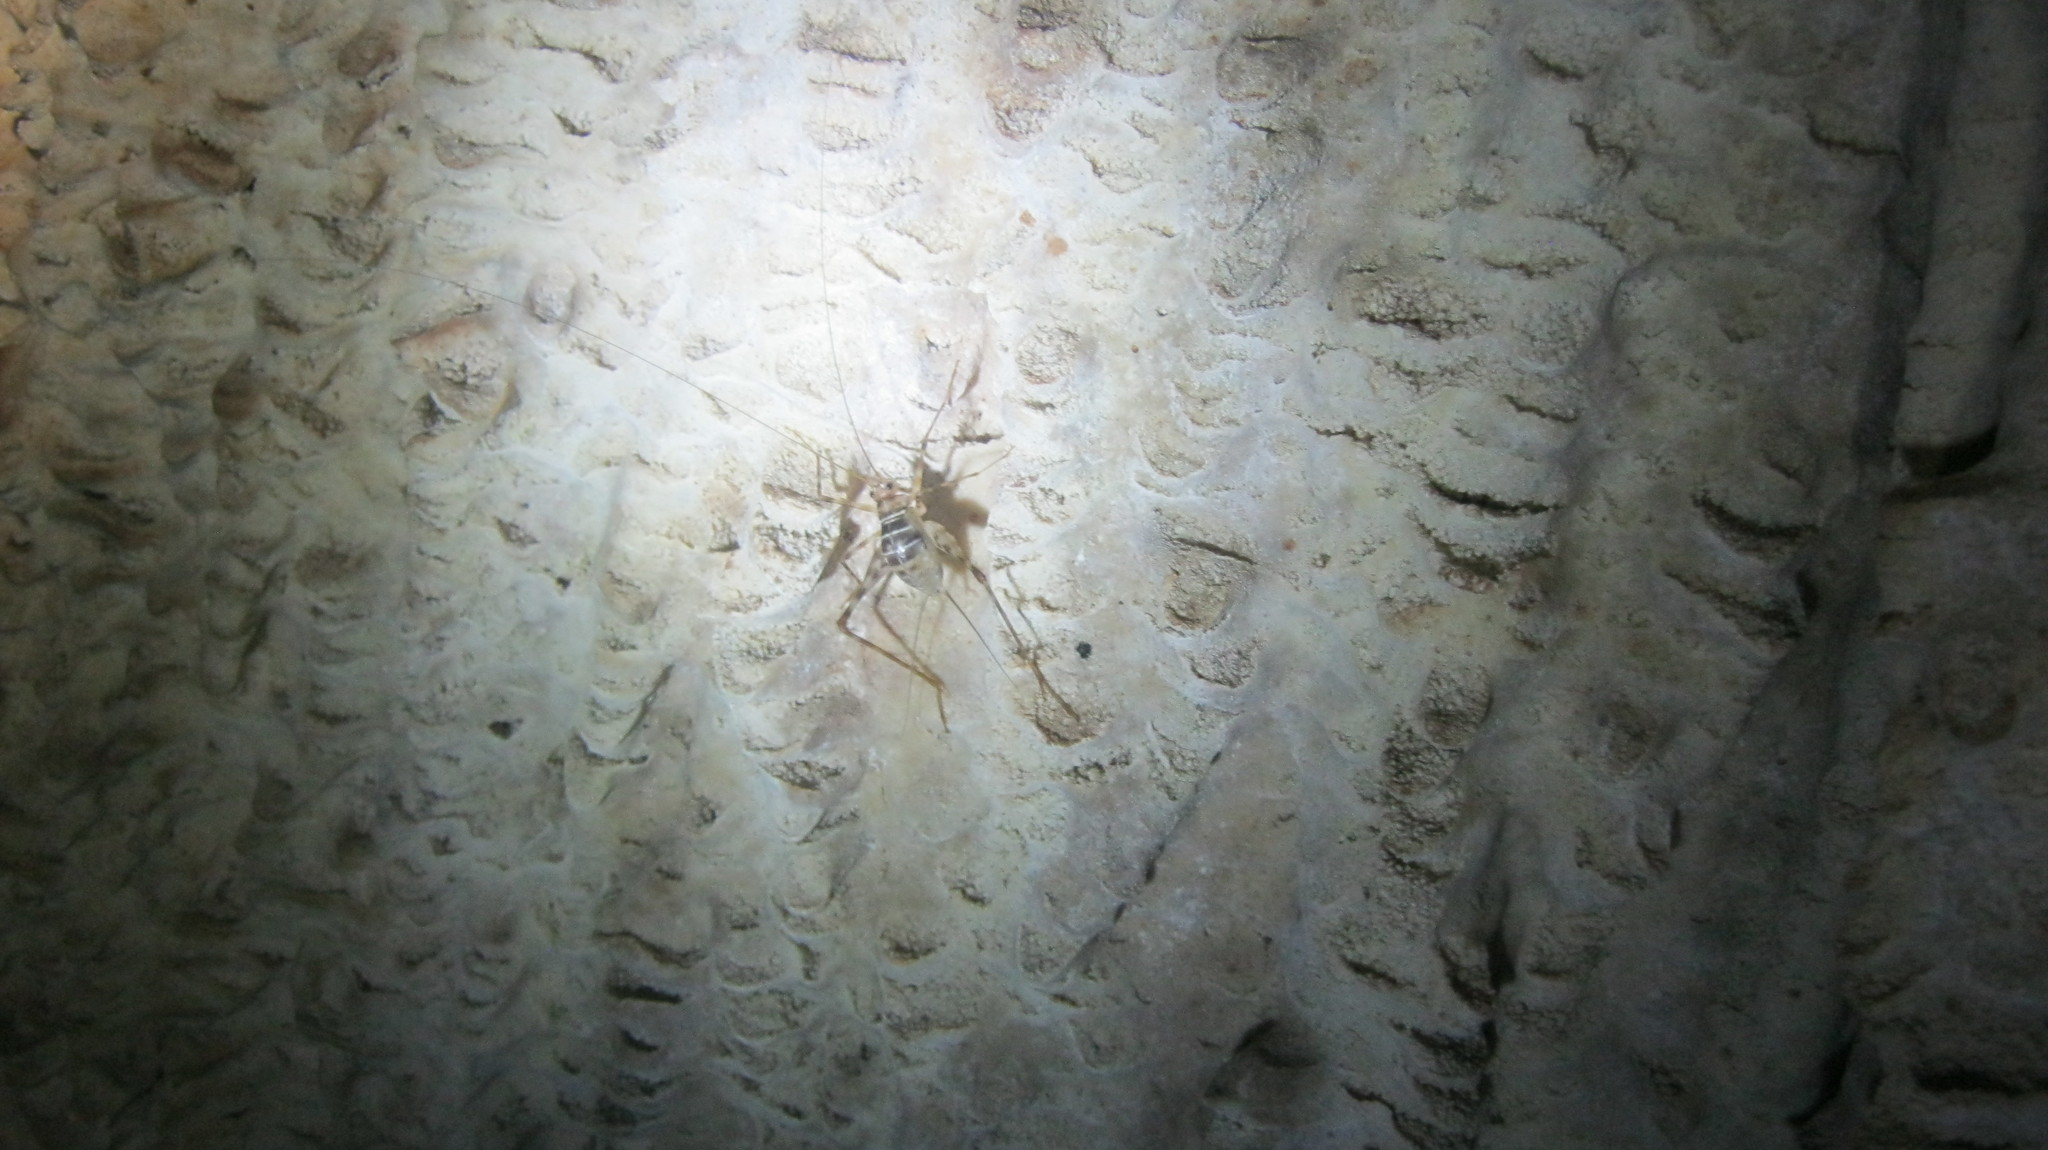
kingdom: Animalia
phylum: Arthropoda
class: Insecta
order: Orthoptera
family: Phalangopsidae
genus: Mayagryllus
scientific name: Mayagryllus yucatanus
